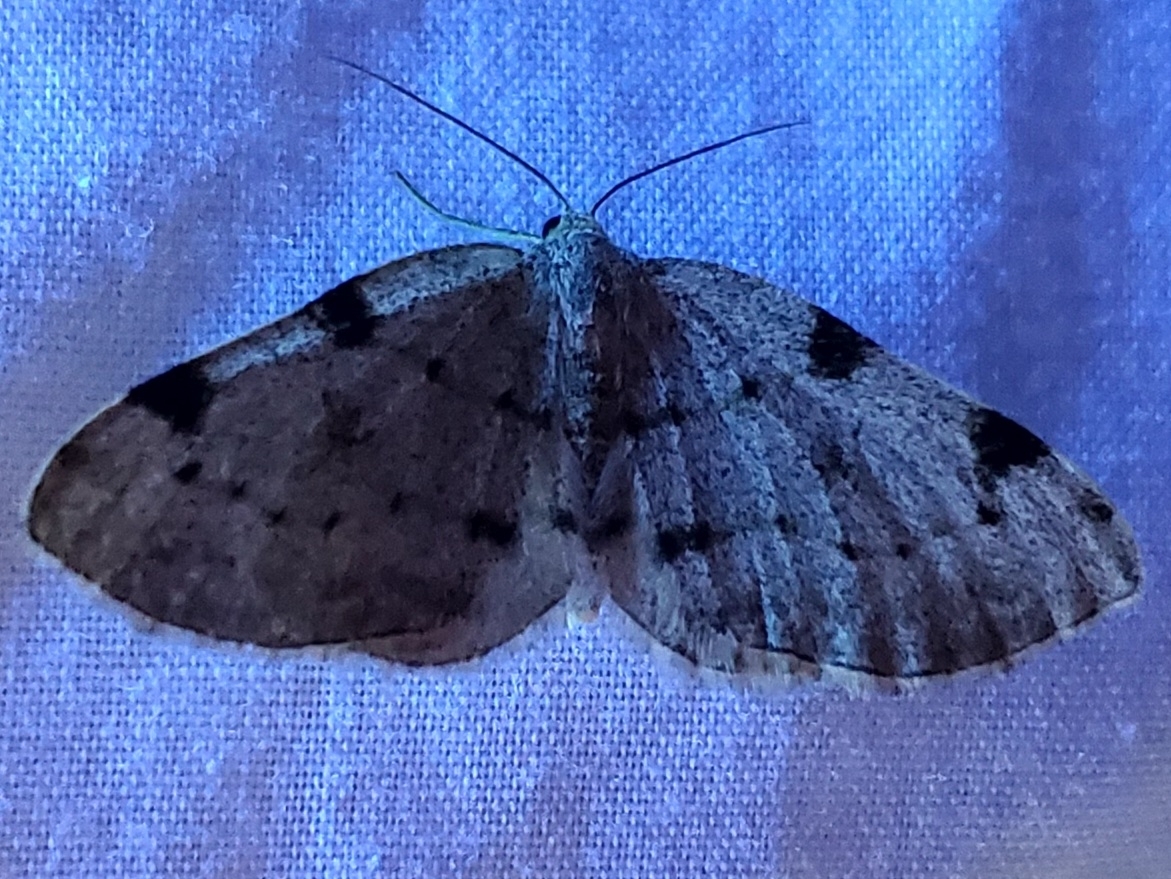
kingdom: Animalia
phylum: Arthropoda
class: Insecta
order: Lepidoptera
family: Geometridae
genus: Heterophleps
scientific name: Heterophleps refusaria
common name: Three-patched bigwing
